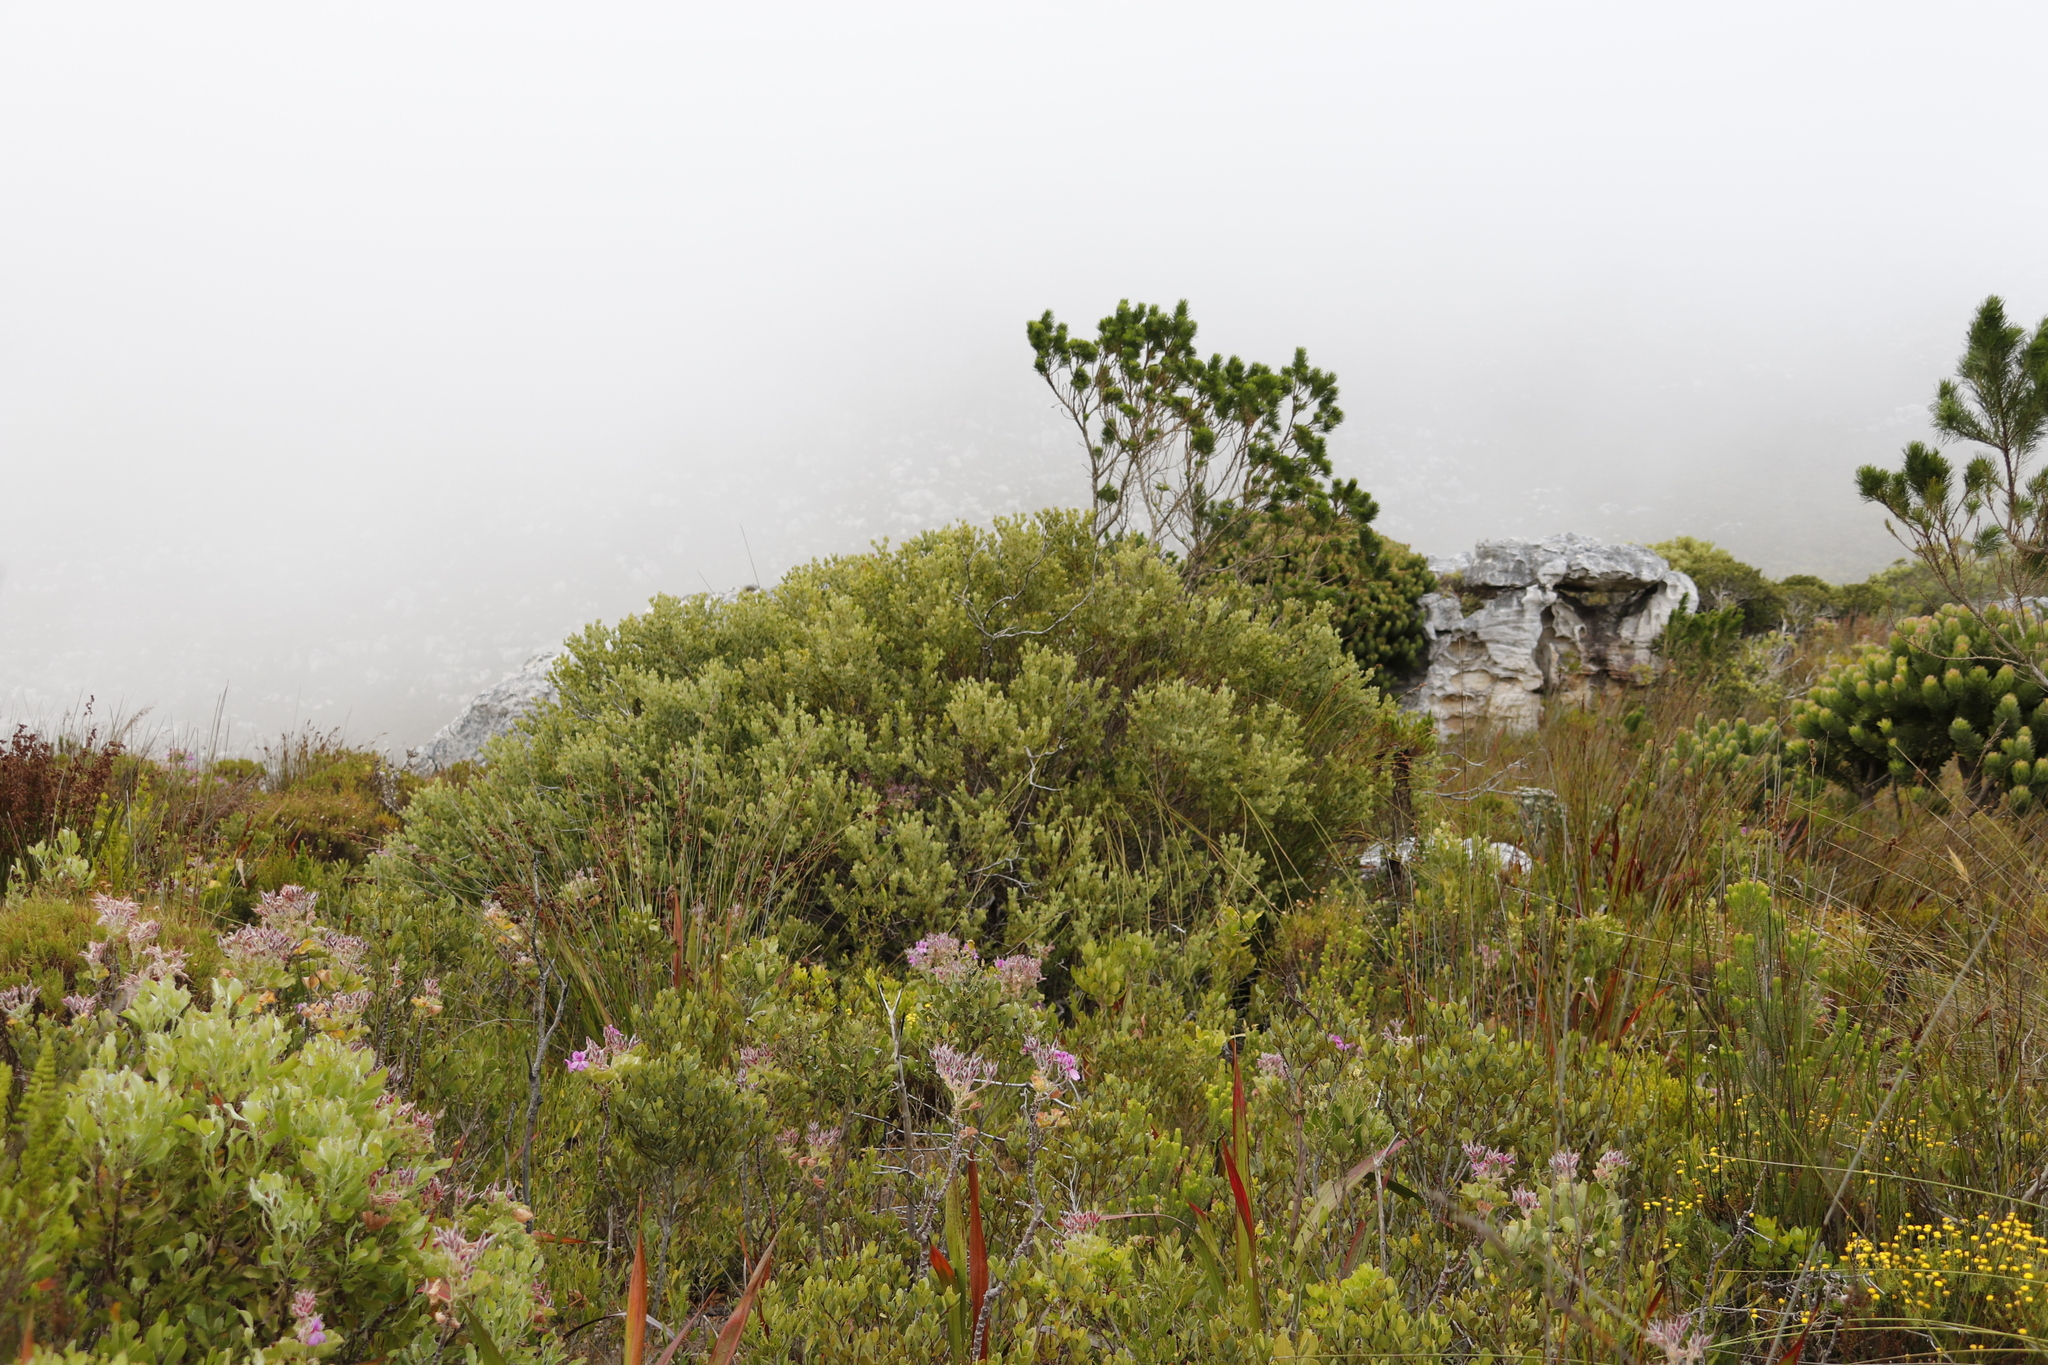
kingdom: Plantae
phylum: Tracheophyta
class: Magnoliopsida
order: Santalales
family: Santalaceae
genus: Osyris
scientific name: Osyris compressa
